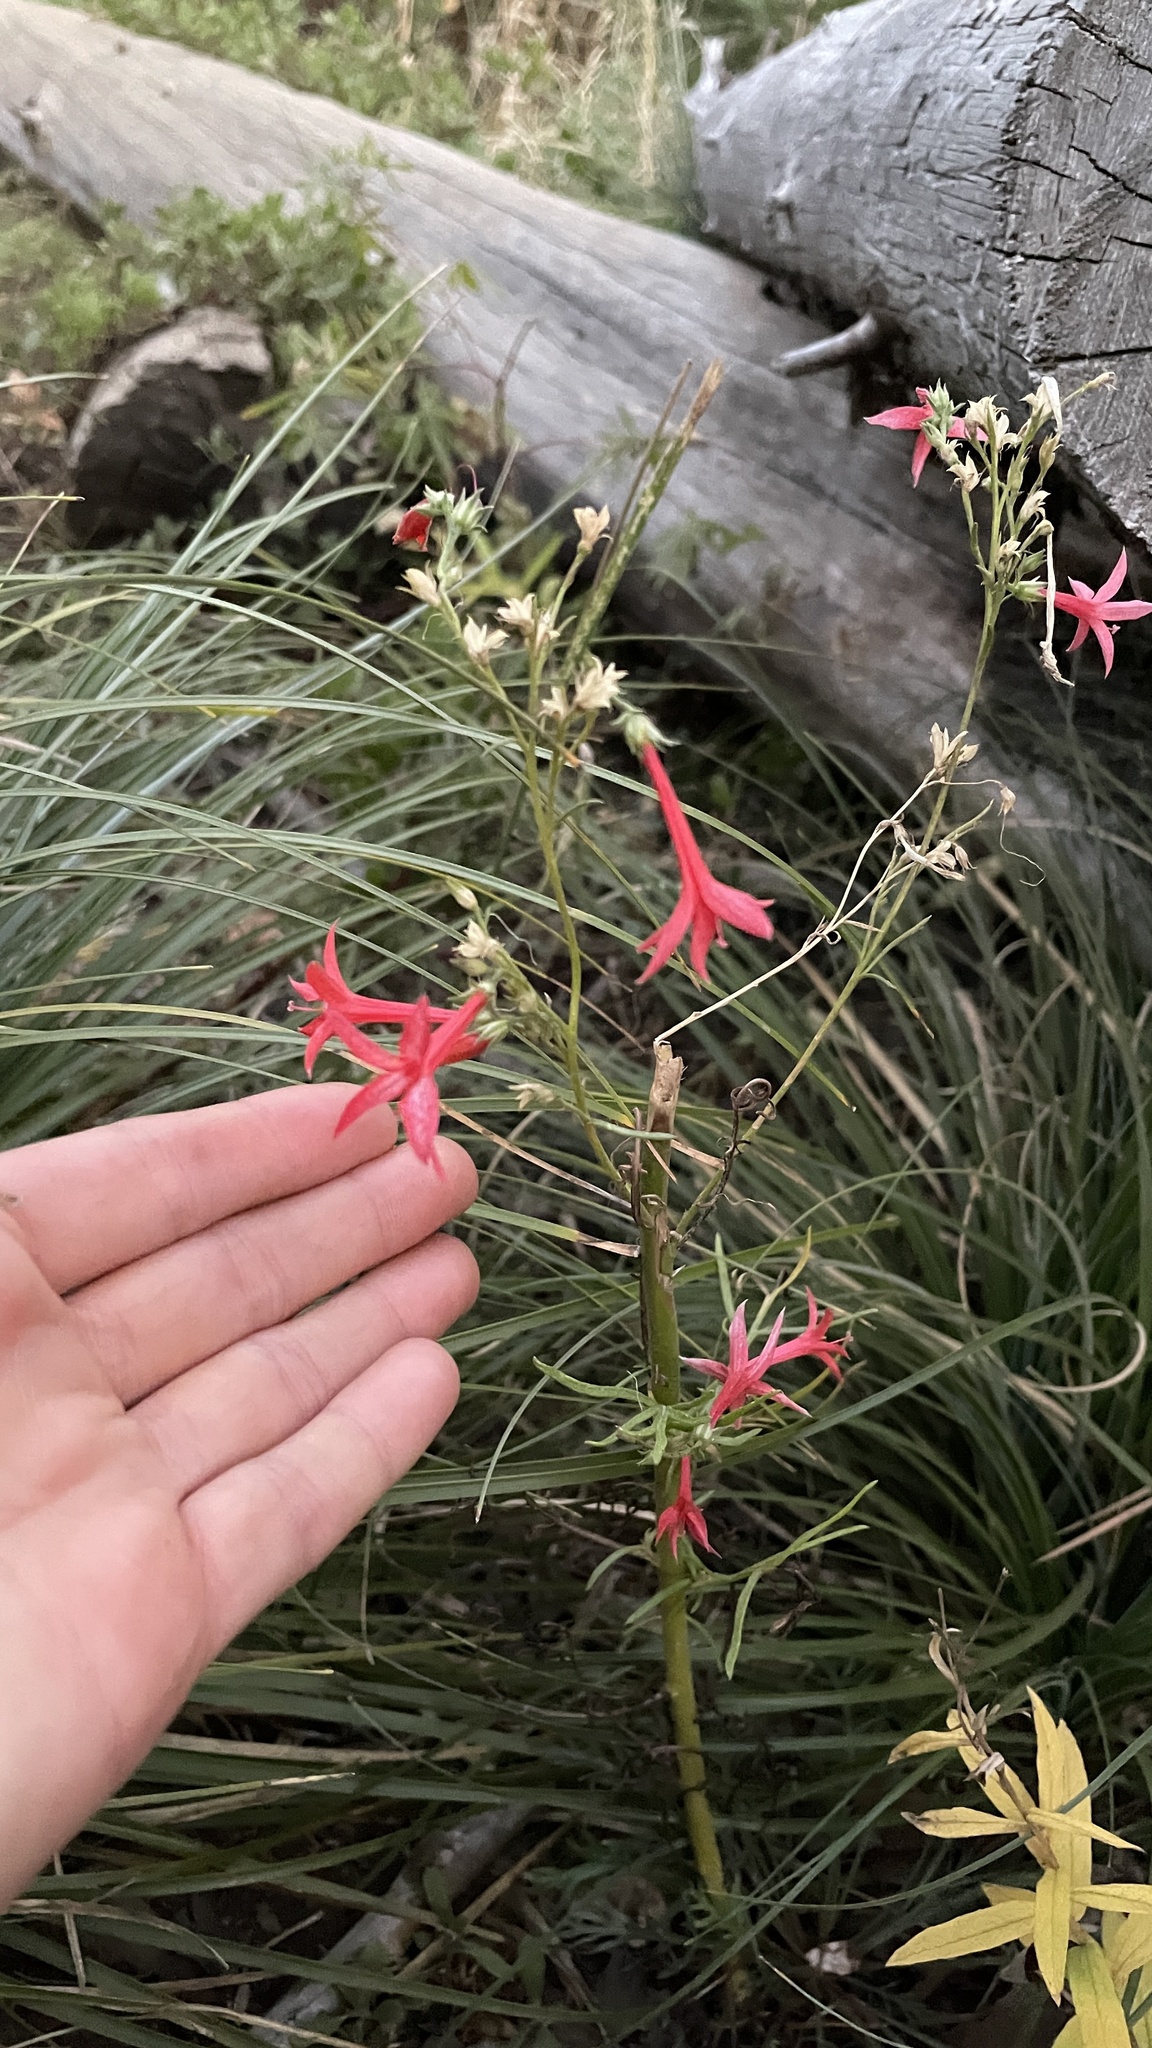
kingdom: Plantae
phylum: Tracheophyta
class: Magnoliopsida
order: Ericales
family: Polemoniaceae
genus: Ipomopsis
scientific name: Ipomopsis aggregata
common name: Scarlet gilia
